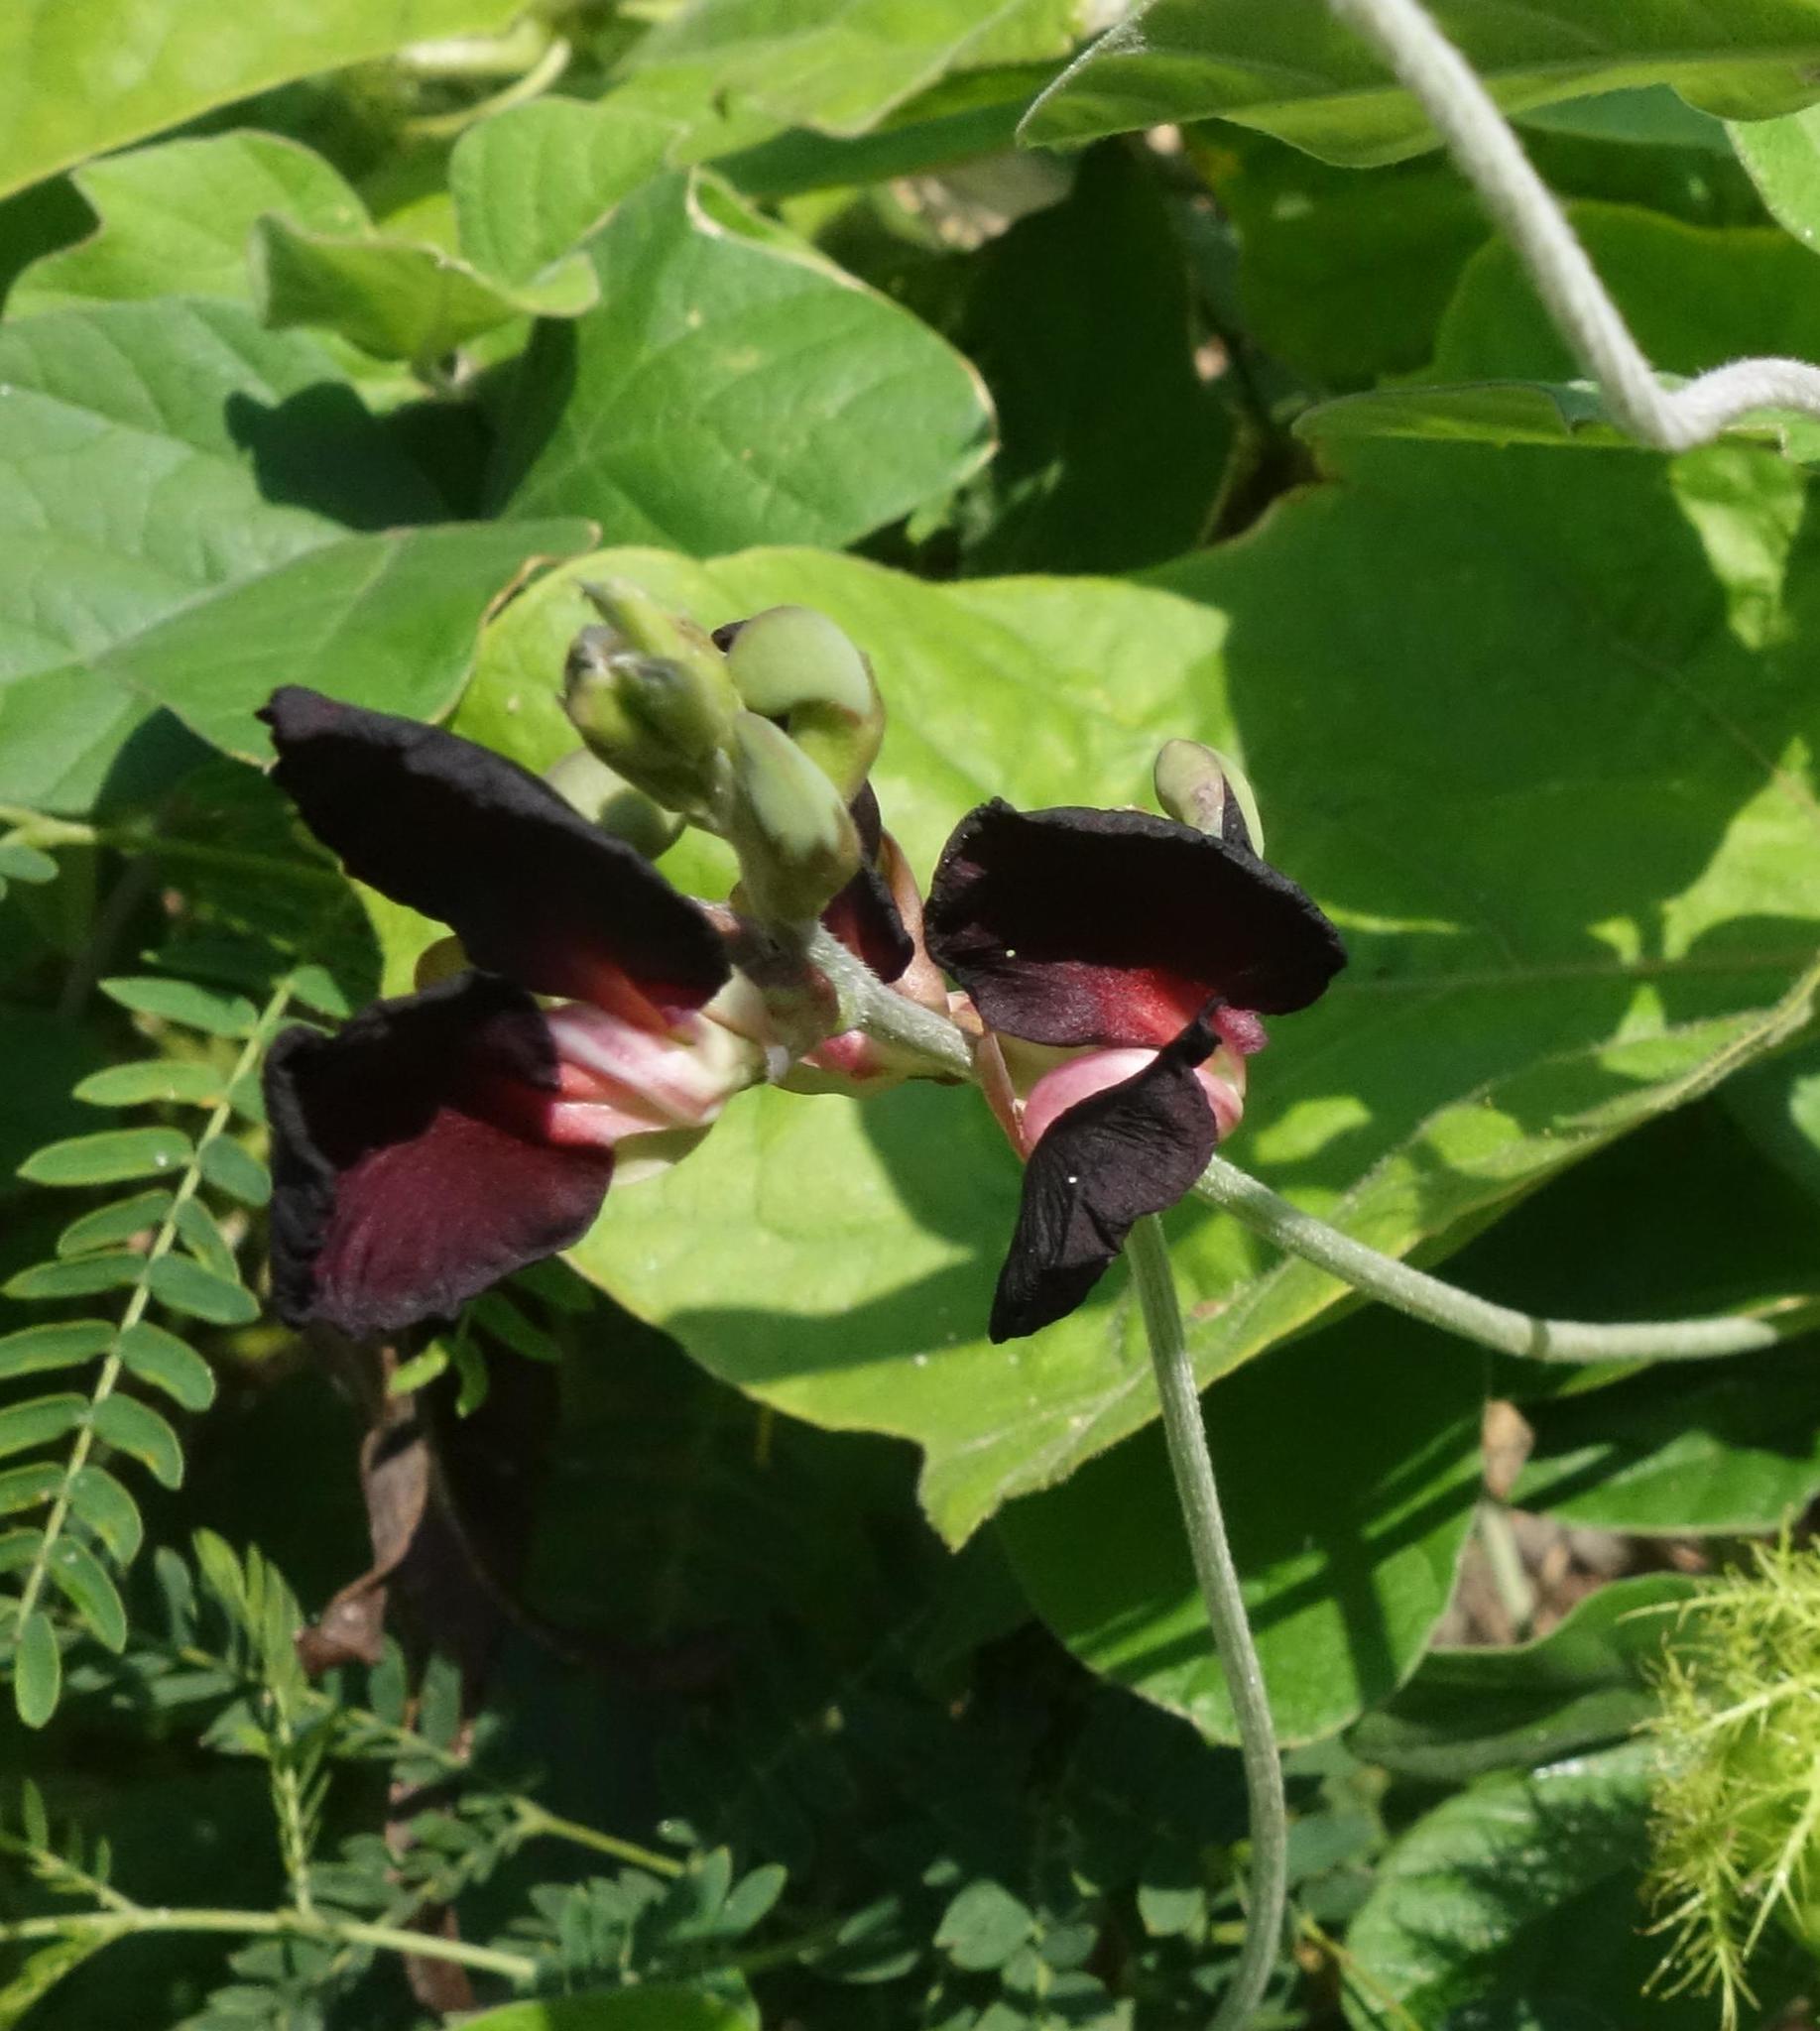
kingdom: Plantae
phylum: Tracheophyta
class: Magnoliopsida
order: Fabales
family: Fabaceae
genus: Macroptilium
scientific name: Macroptilium atropurpureum
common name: Purple bushbean
